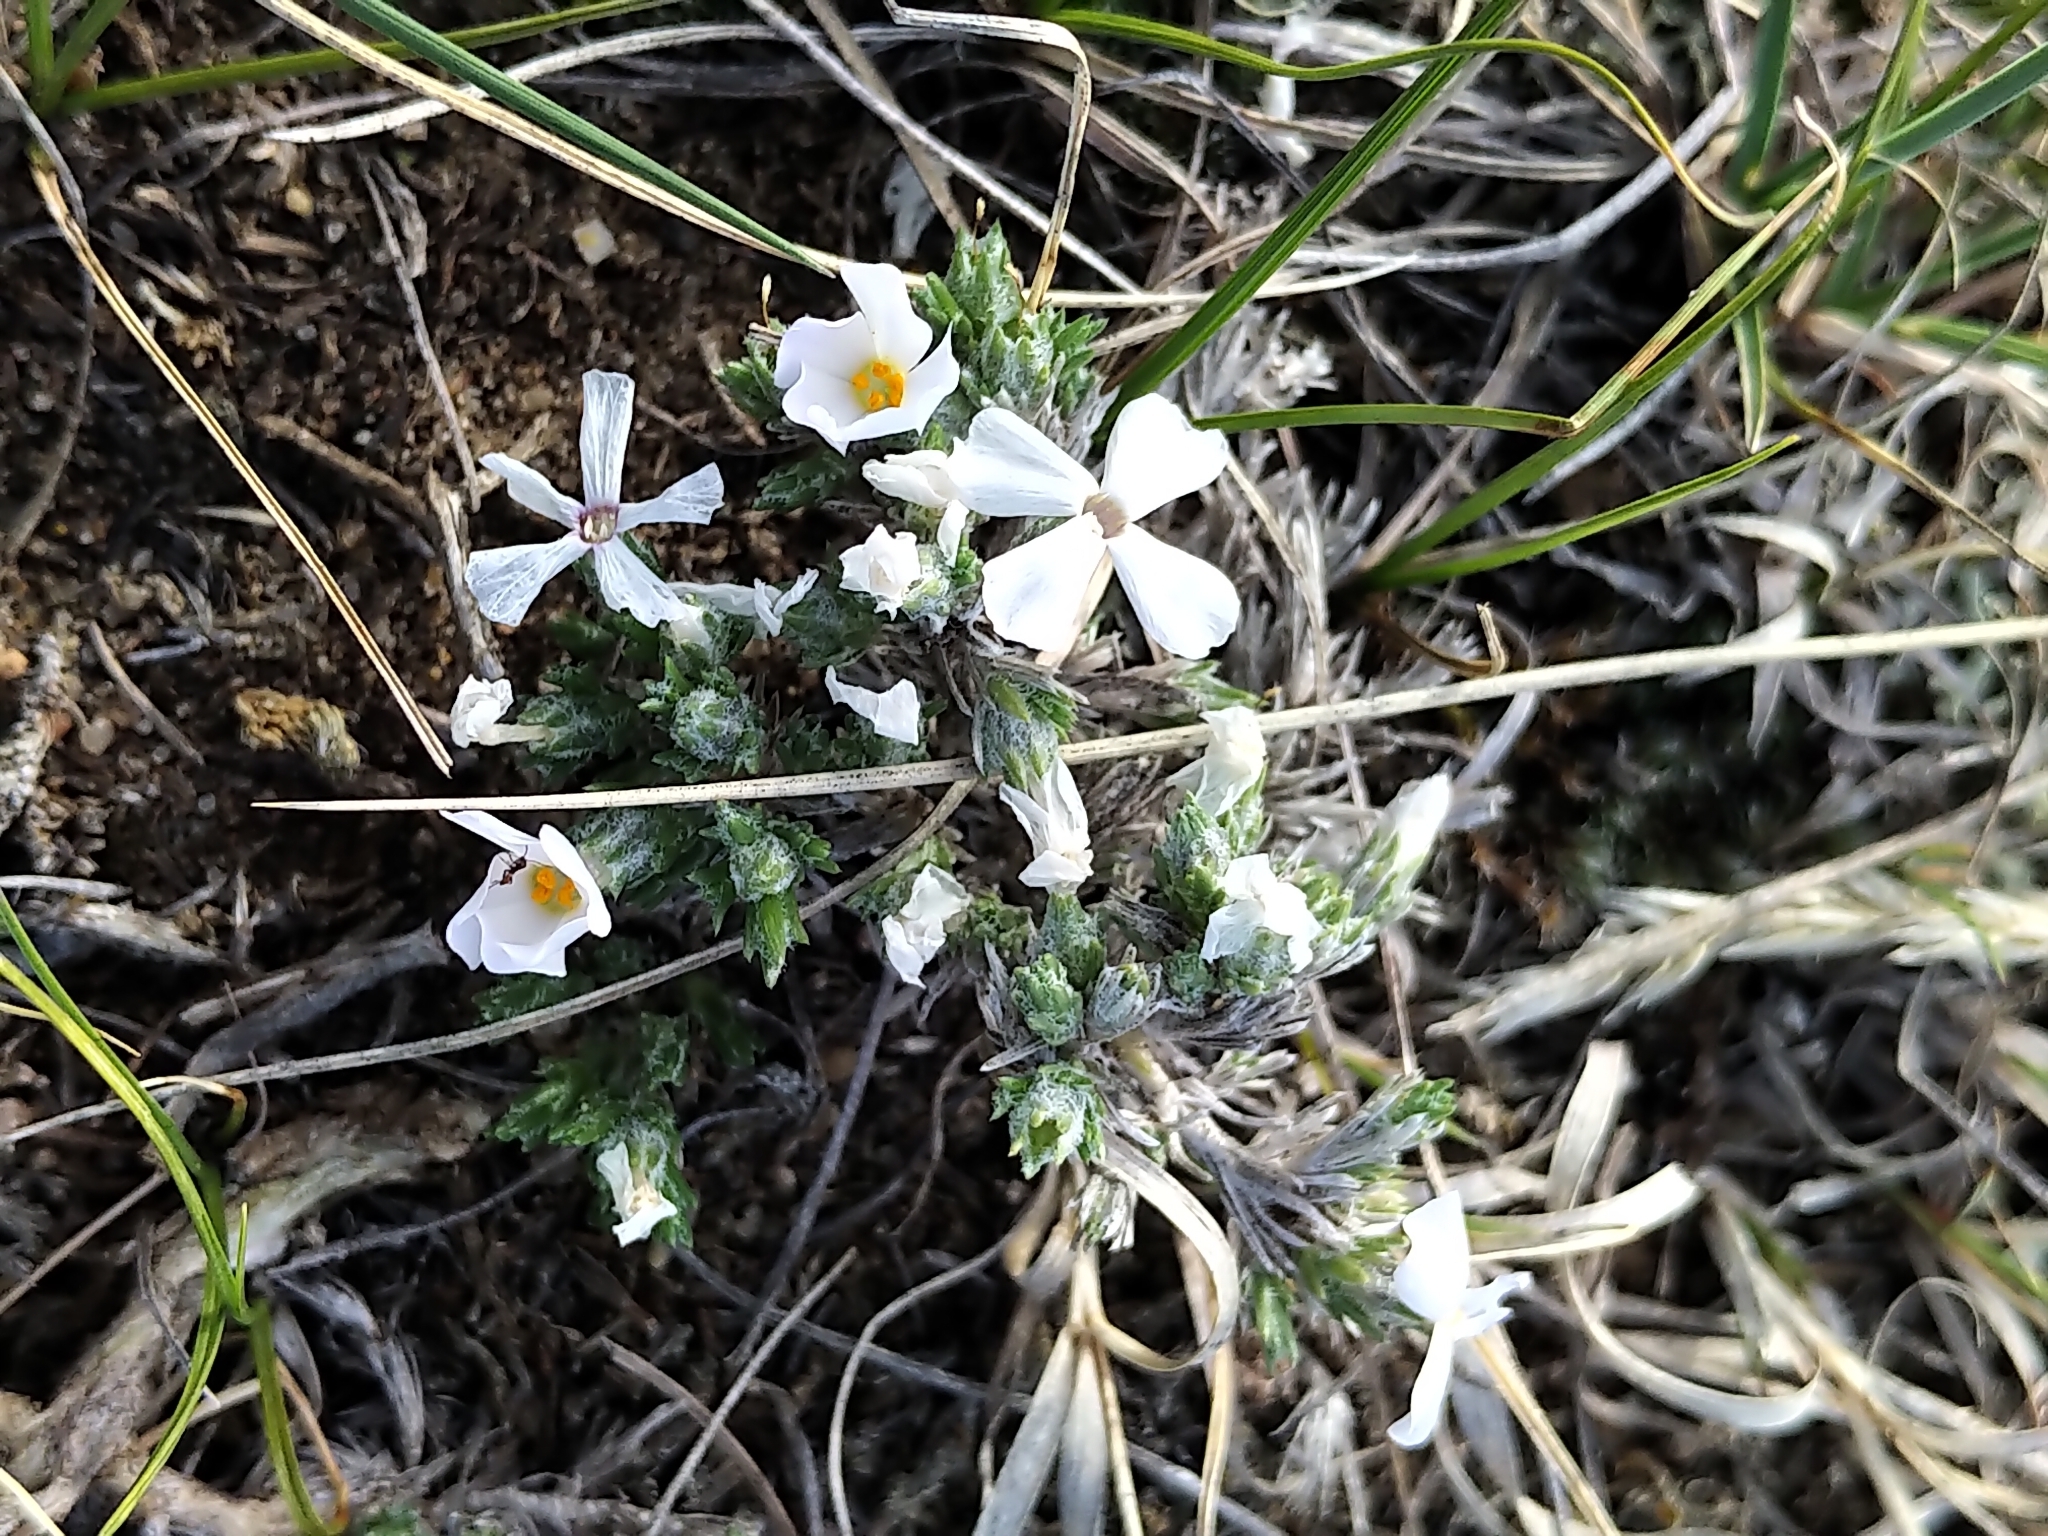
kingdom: Plantae
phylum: Tracheophyta
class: Magnoliopsida
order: Ericales
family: Polemoniaceae
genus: Phlox
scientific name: Phlox hoodii
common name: Moss phlox
